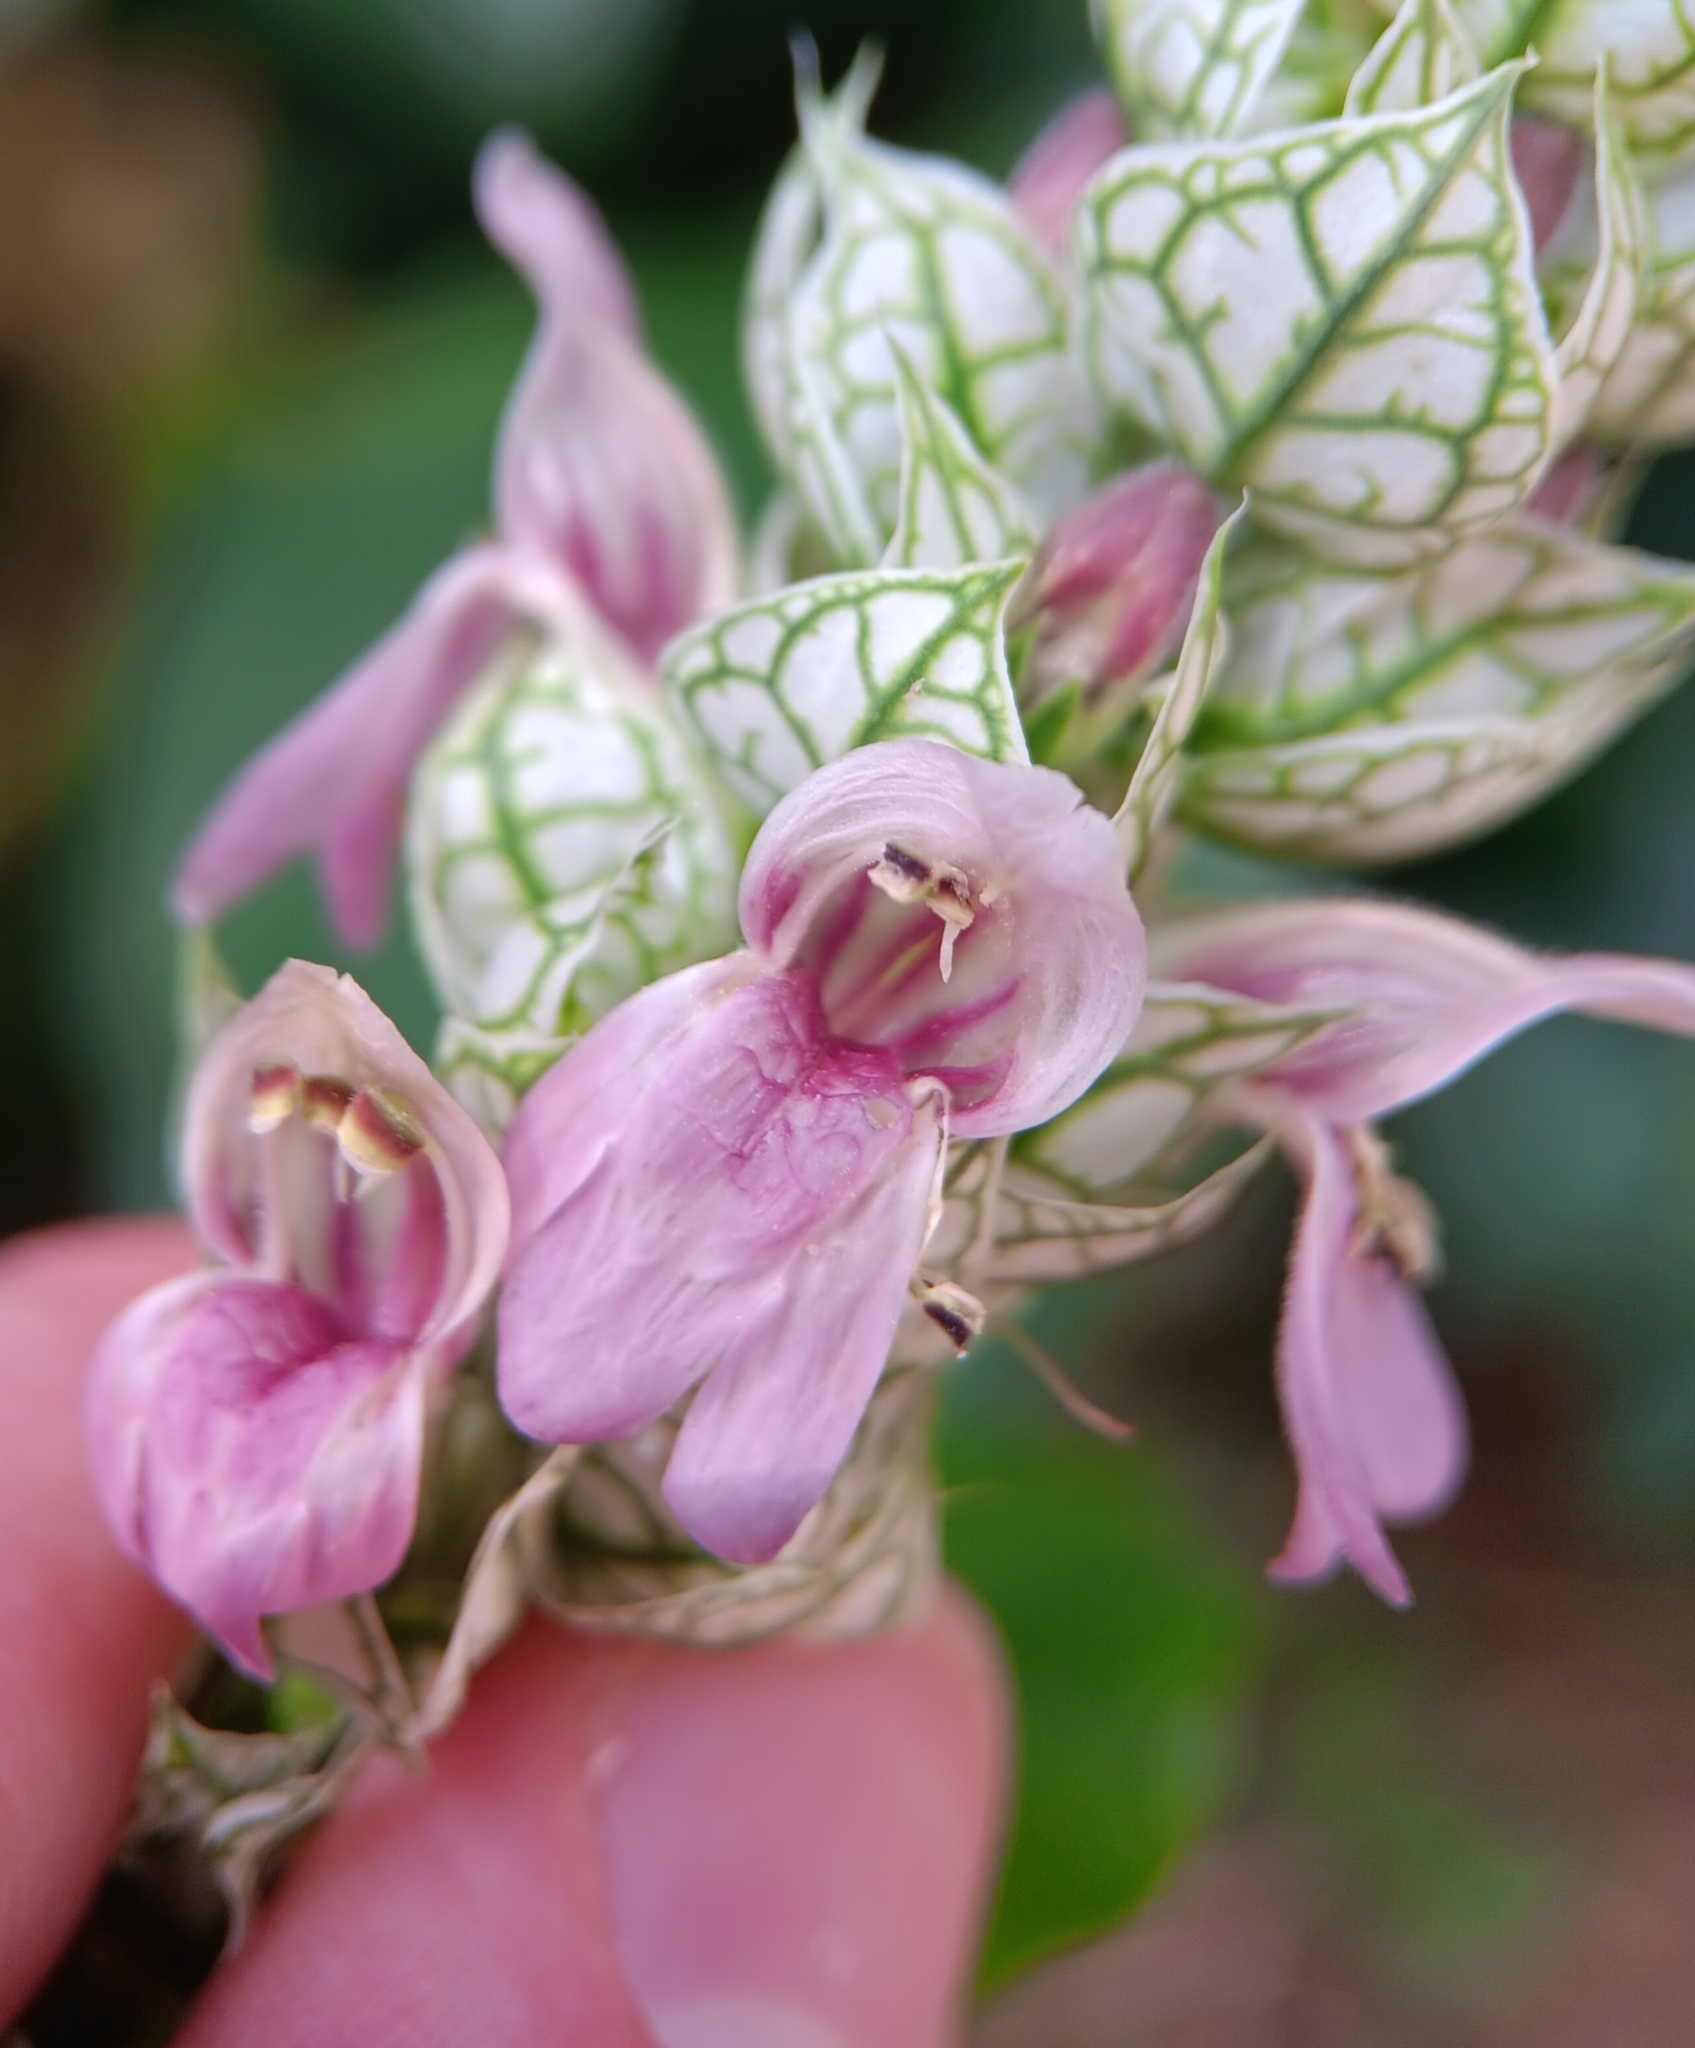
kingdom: Plantae
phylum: Tracheophyta
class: Magnoliopsida
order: Lamiales
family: Acanthaceae
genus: Justicia
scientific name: Justicia betonica
